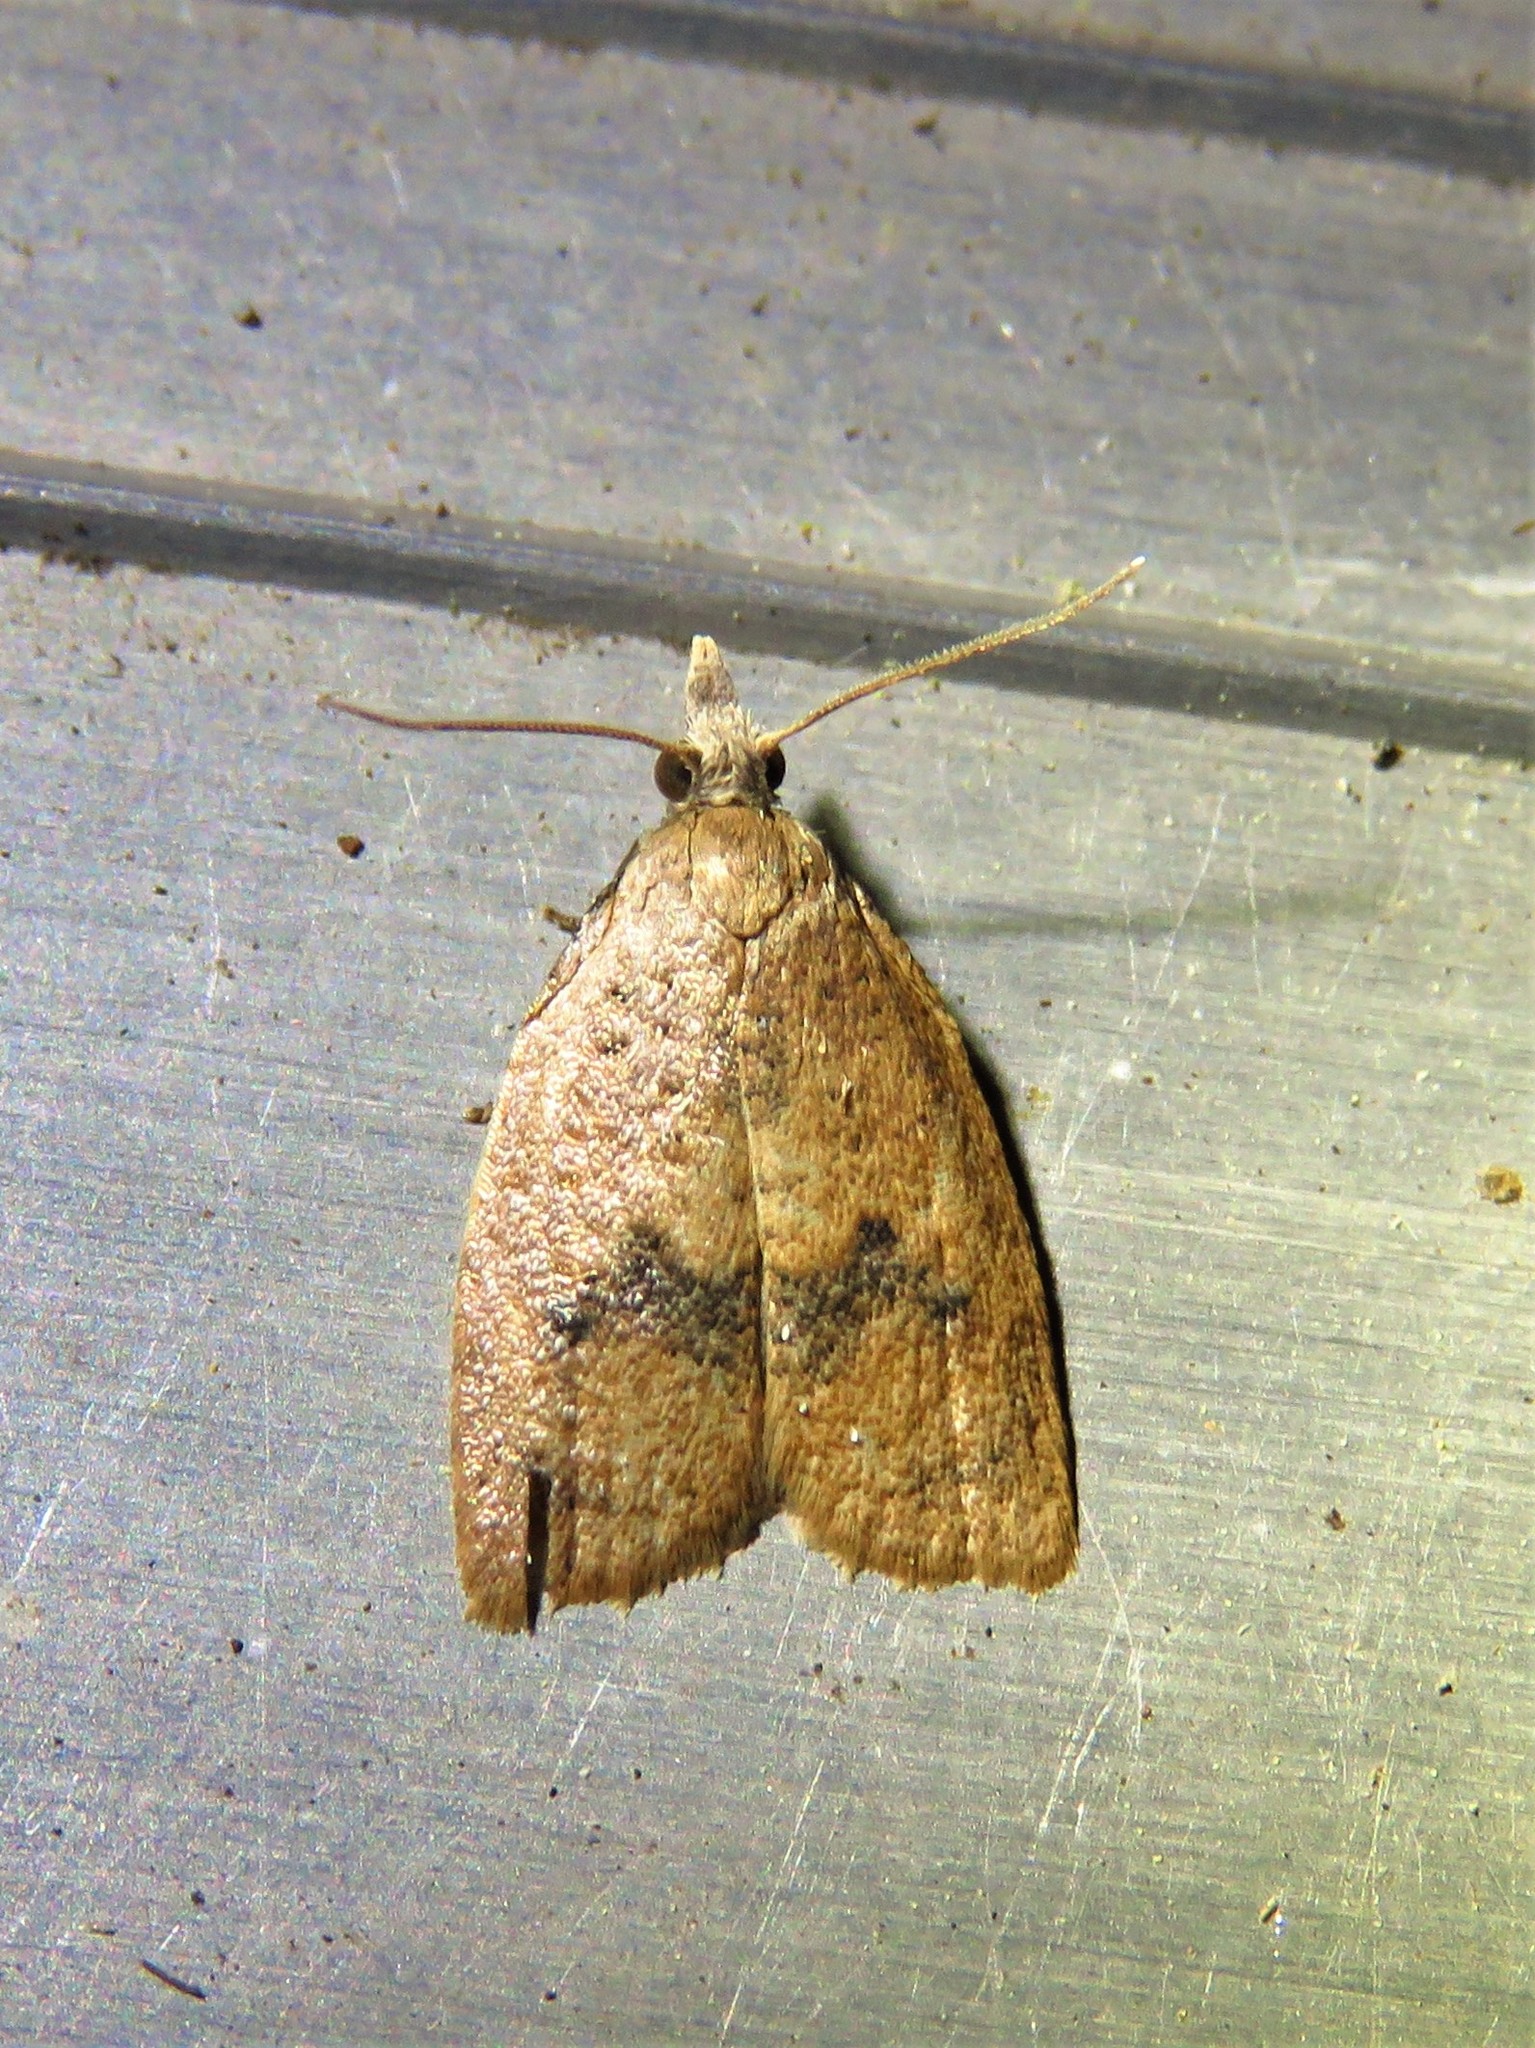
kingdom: Animalia
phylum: Arthropoda
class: Insecta
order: Lepidoptera
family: Tortricidae
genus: Sparganothoides
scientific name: Sparganothoides lentiginosana
